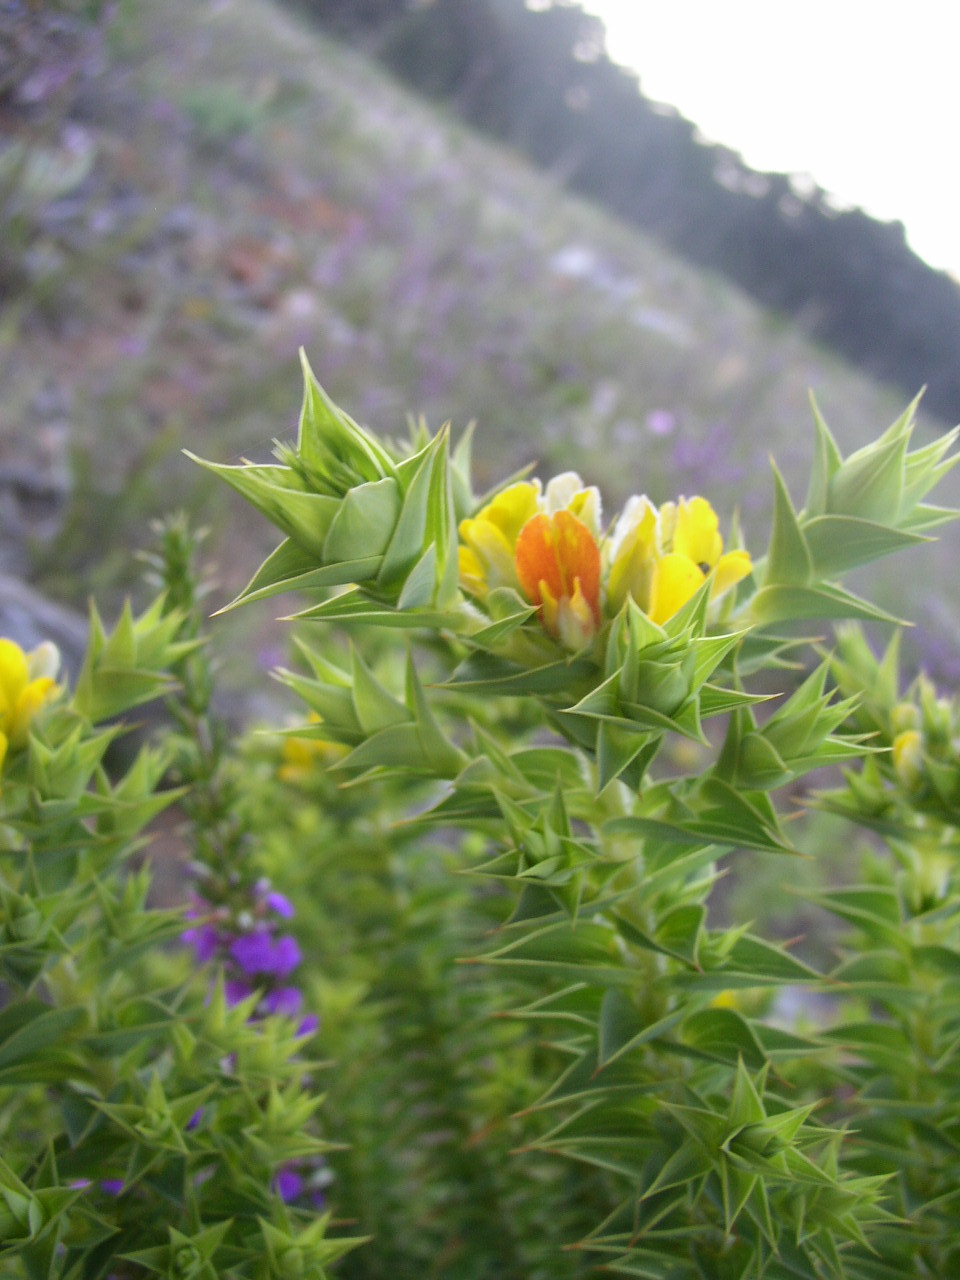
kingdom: Plantae
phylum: Tracheophyta
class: Magnoliopsida
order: Fabales
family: Fabaceae
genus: Aspalathus
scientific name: Aspalathus cordata
